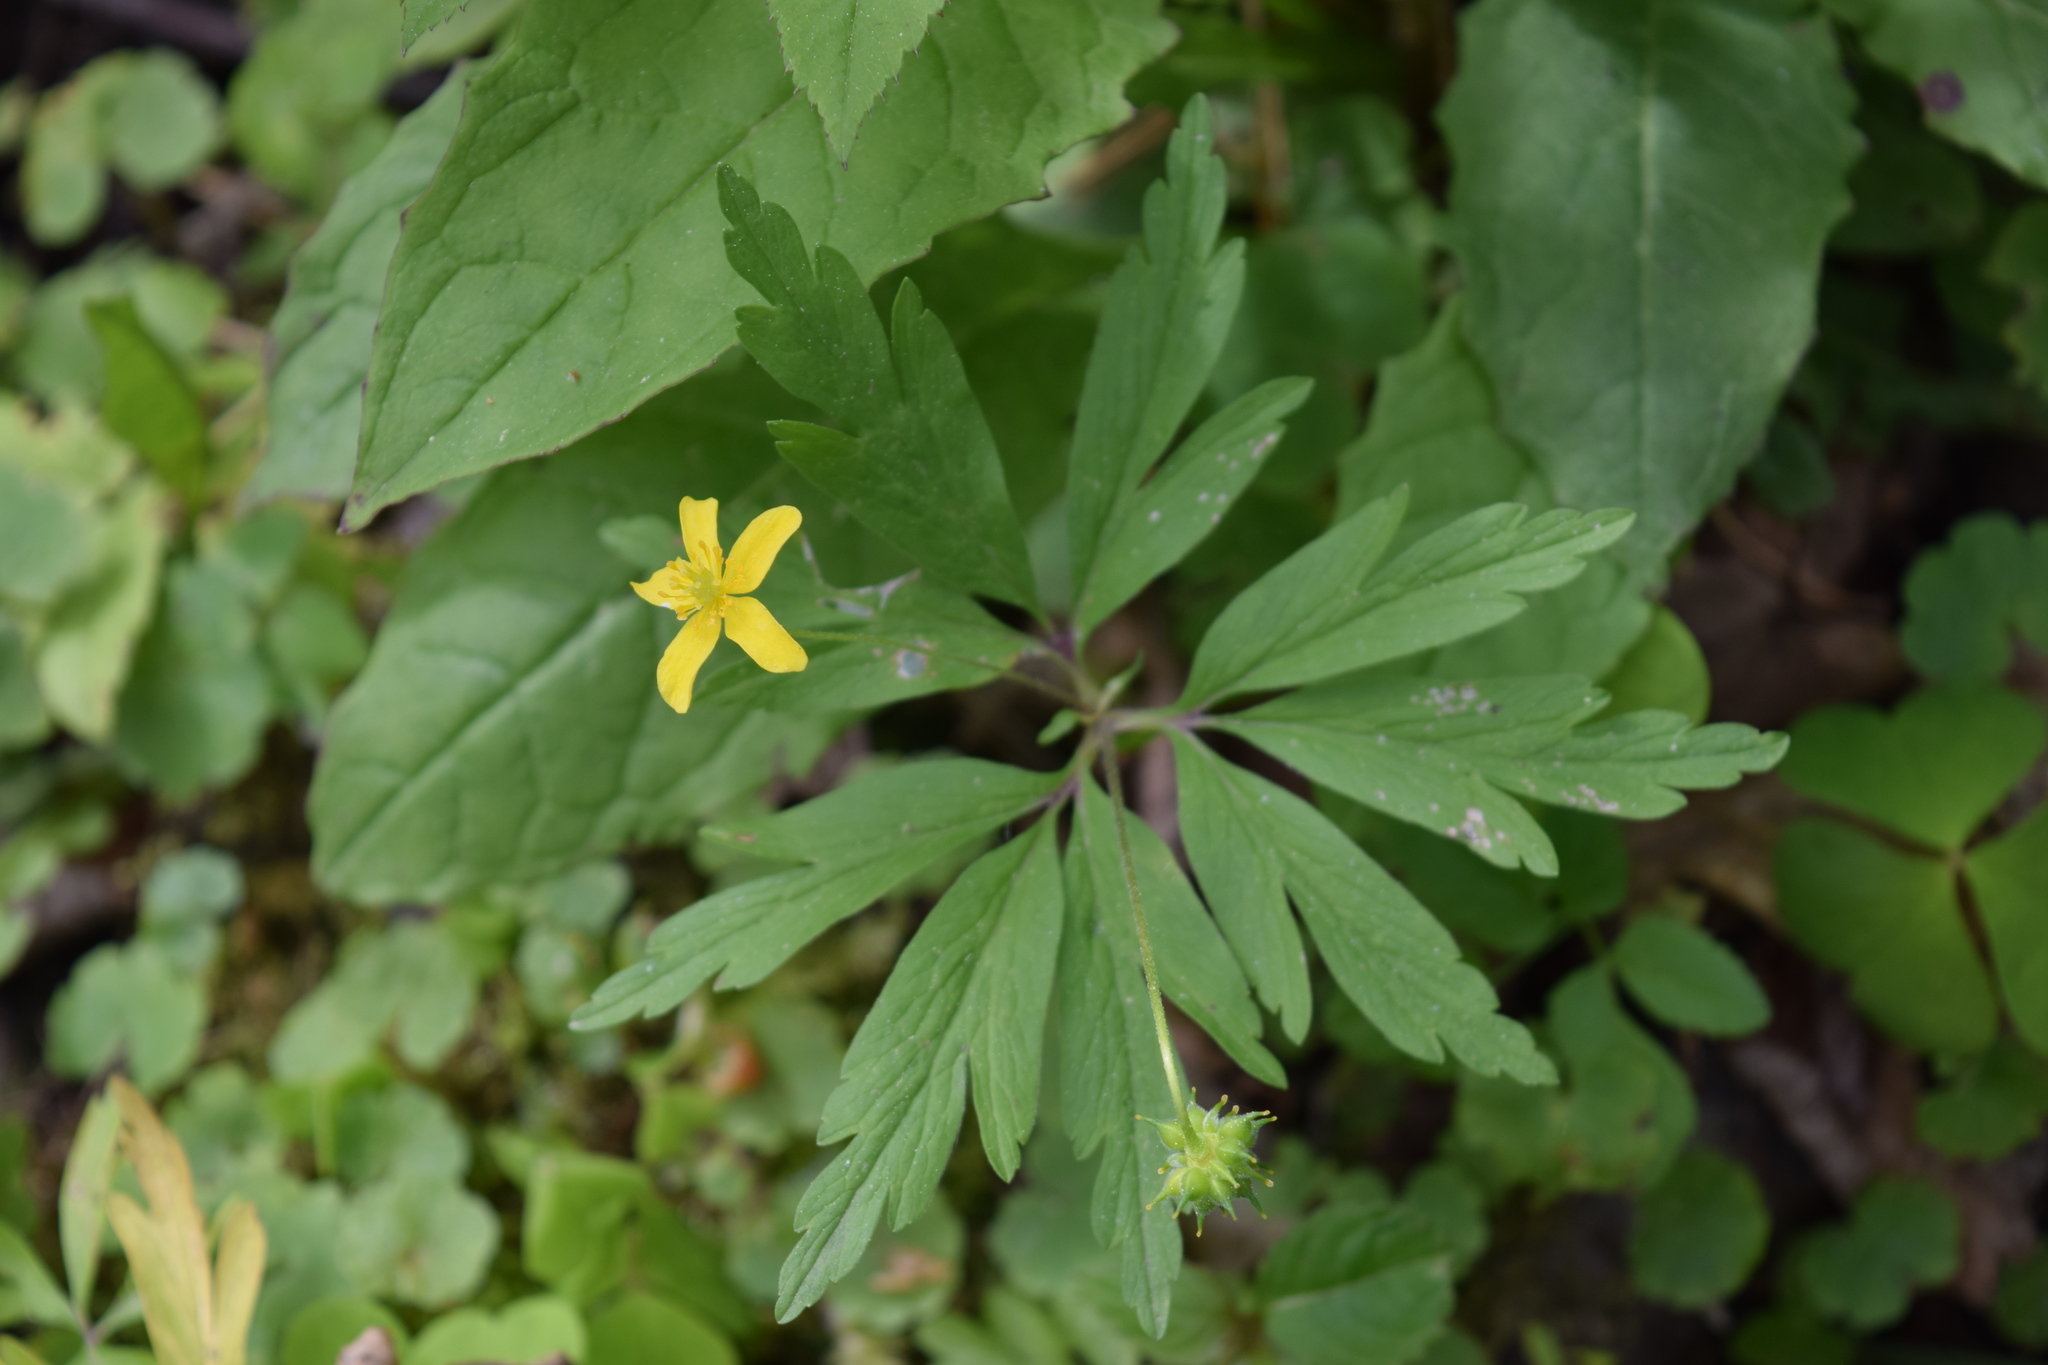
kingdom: Plantae
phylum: Tracheophyta
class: Magnoliopsida
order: Ranunculales
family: Ranunculaceae
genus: Anemone
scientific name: Anemone ranunculoides
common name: Yellow anemone
